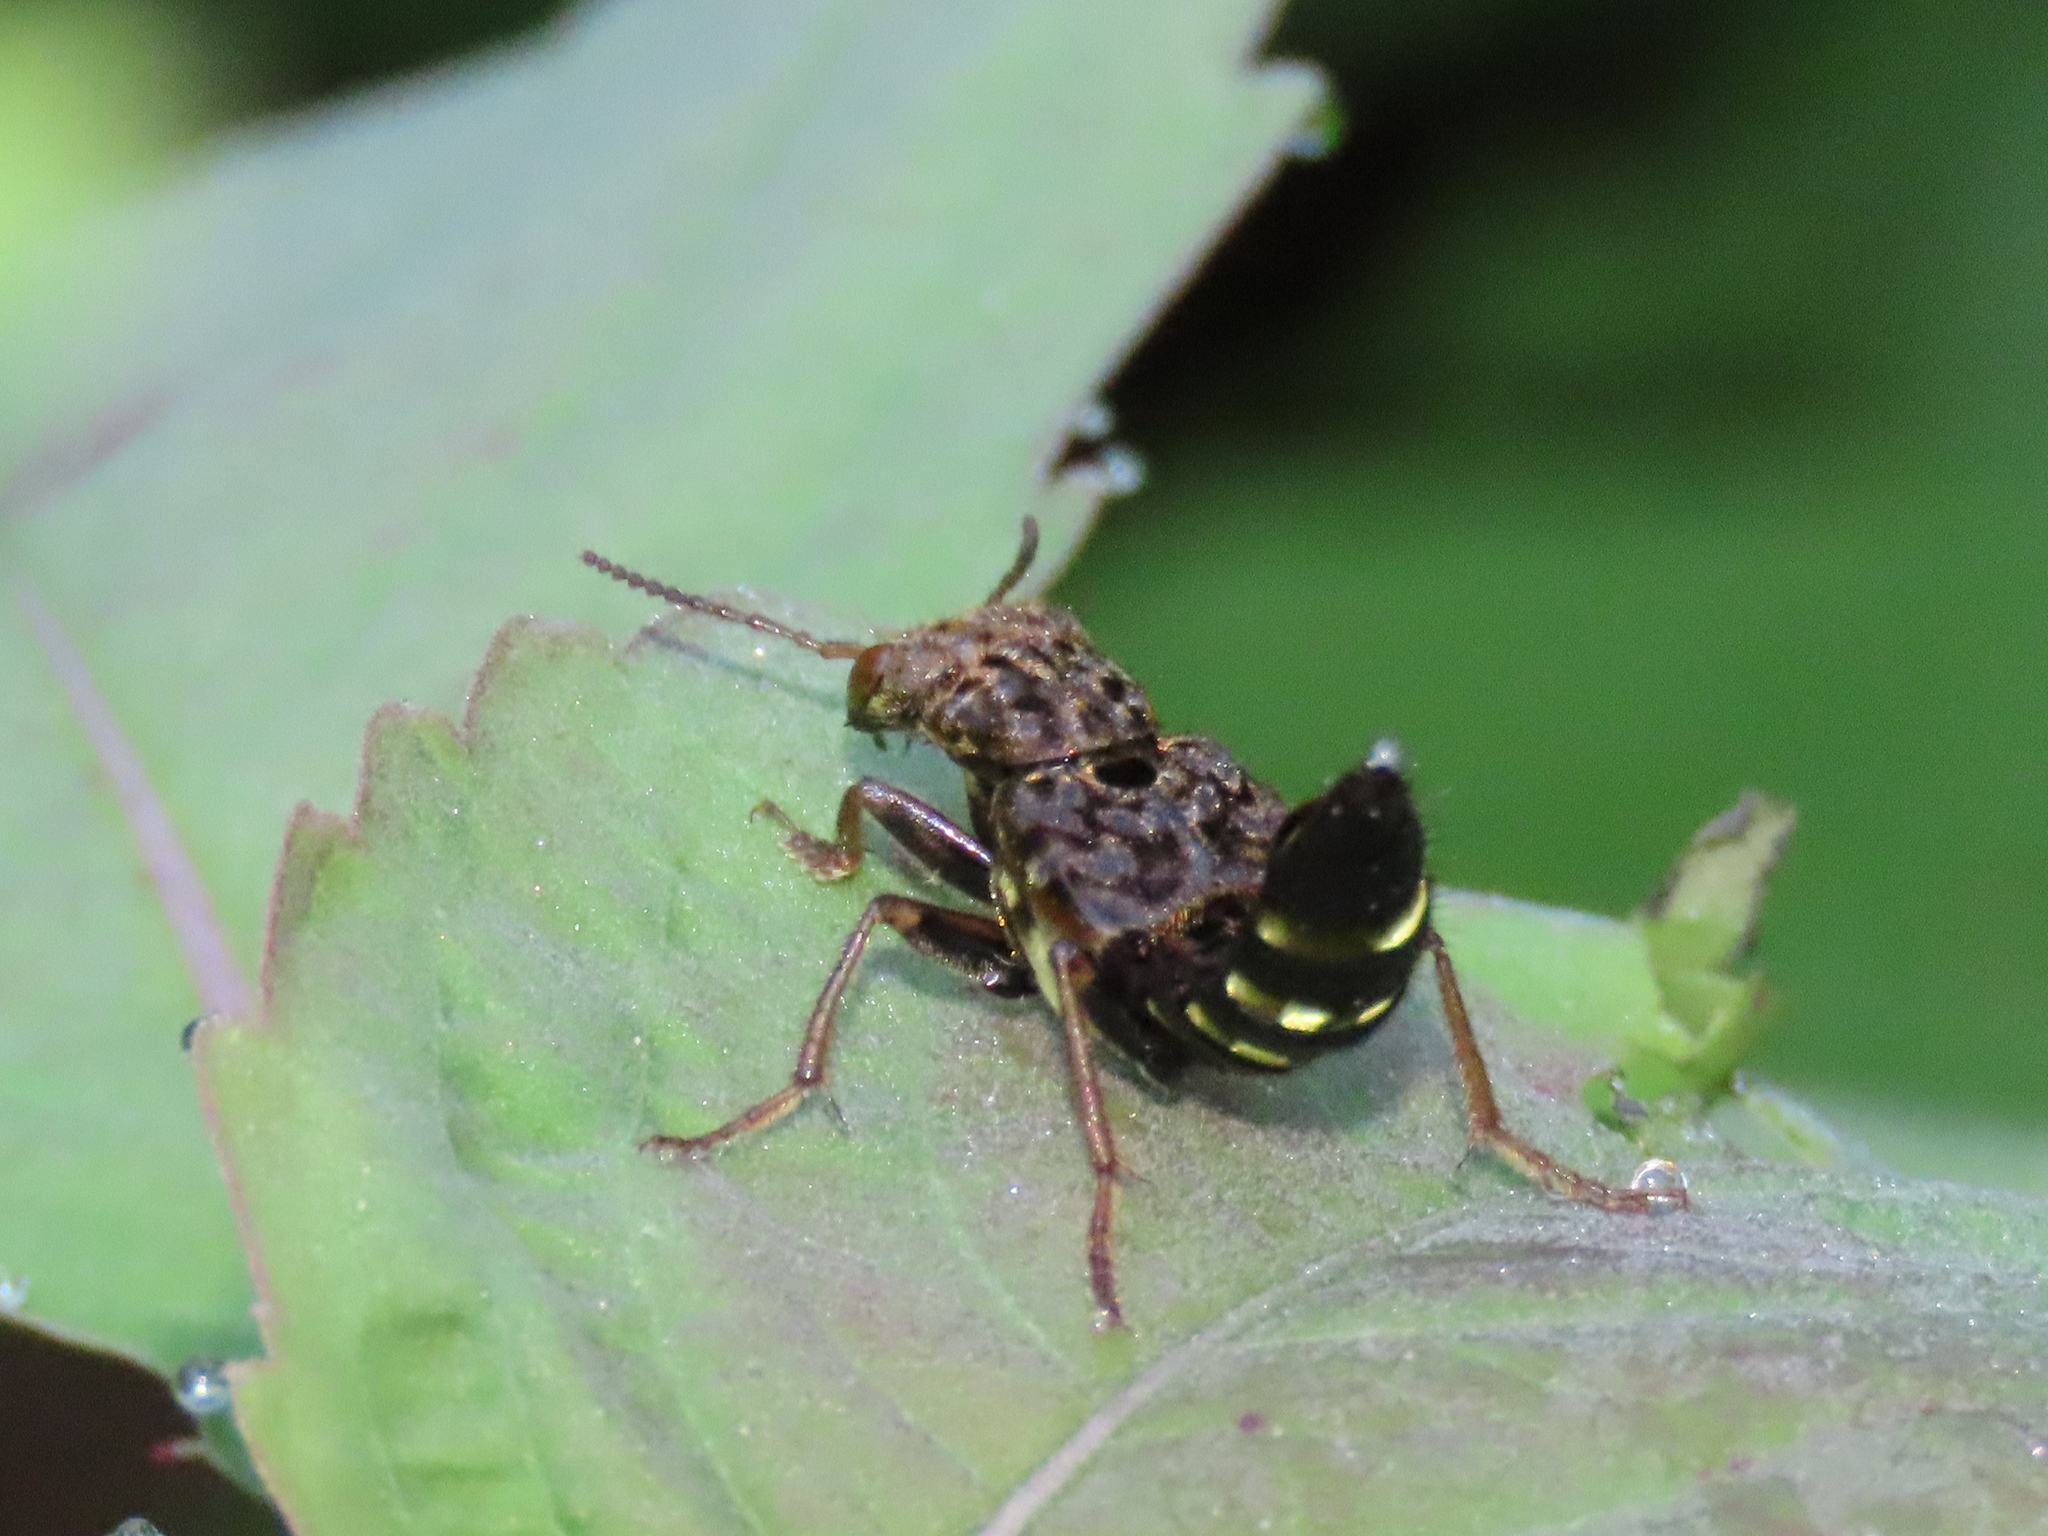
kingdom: Animalia
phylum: Arthropoda
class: Insecta
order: Coleoptera
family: Staphylinidae
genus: Ontholestes
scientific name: Ontholestes cingulatus
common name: Gold-and-brown rove beetle
